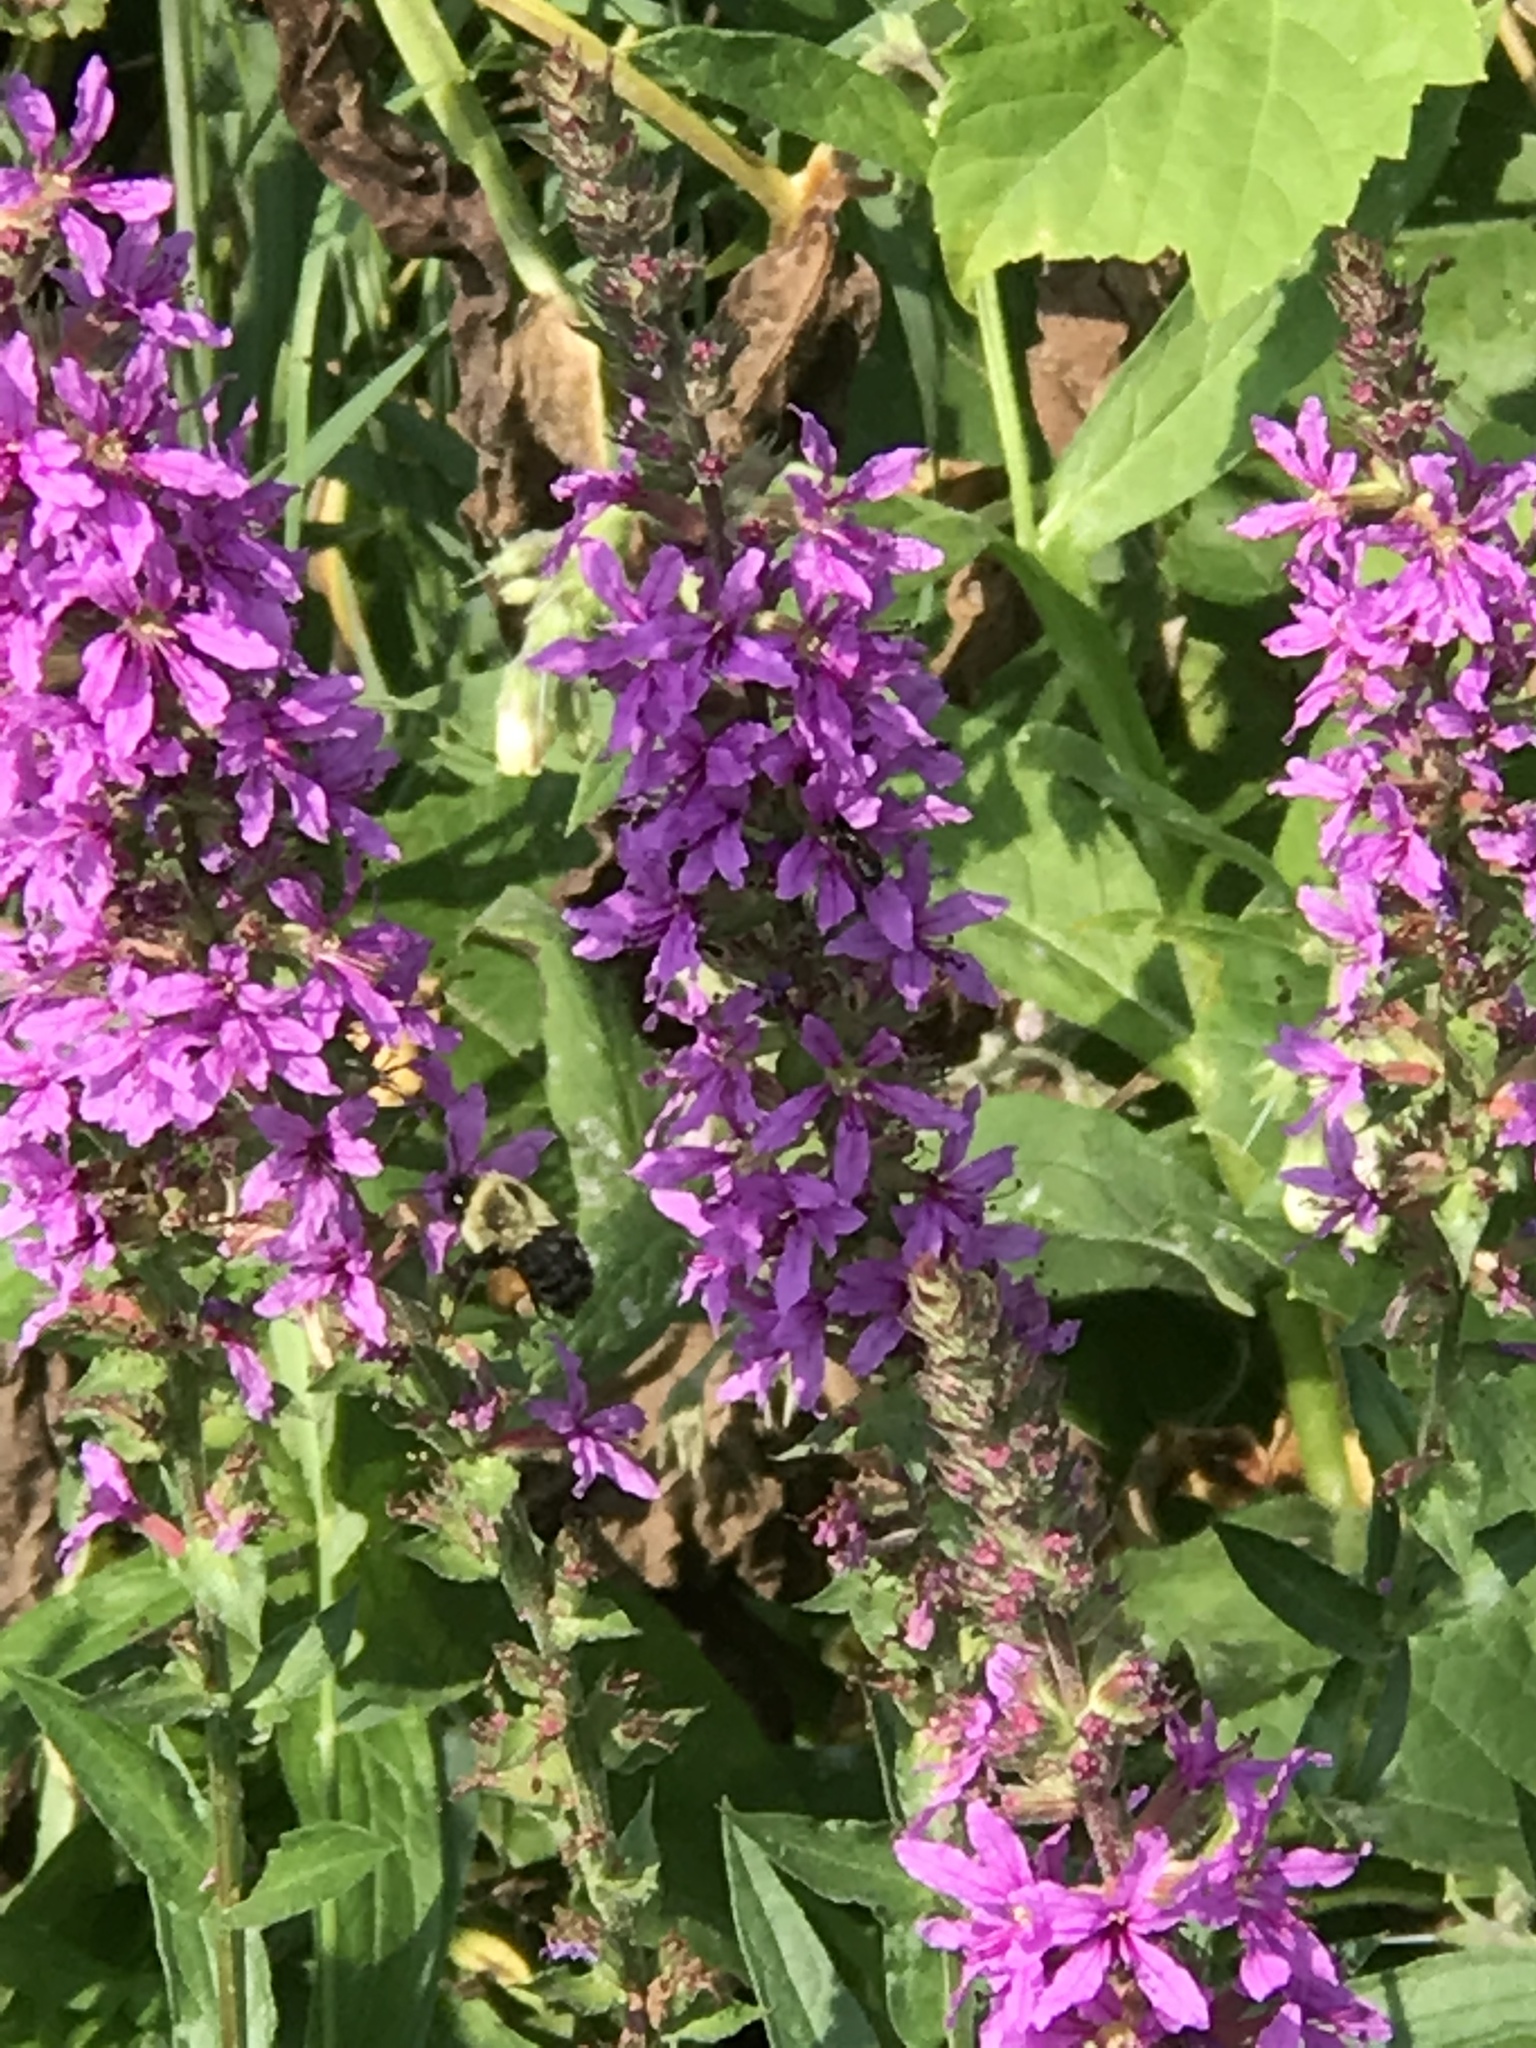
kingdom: Animalia
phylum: Arthropoda
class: Insecta
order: Hymenoptera
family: Apidae
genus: Bombus
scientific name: Bombus impatiens
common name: Common eastern bumble bee
